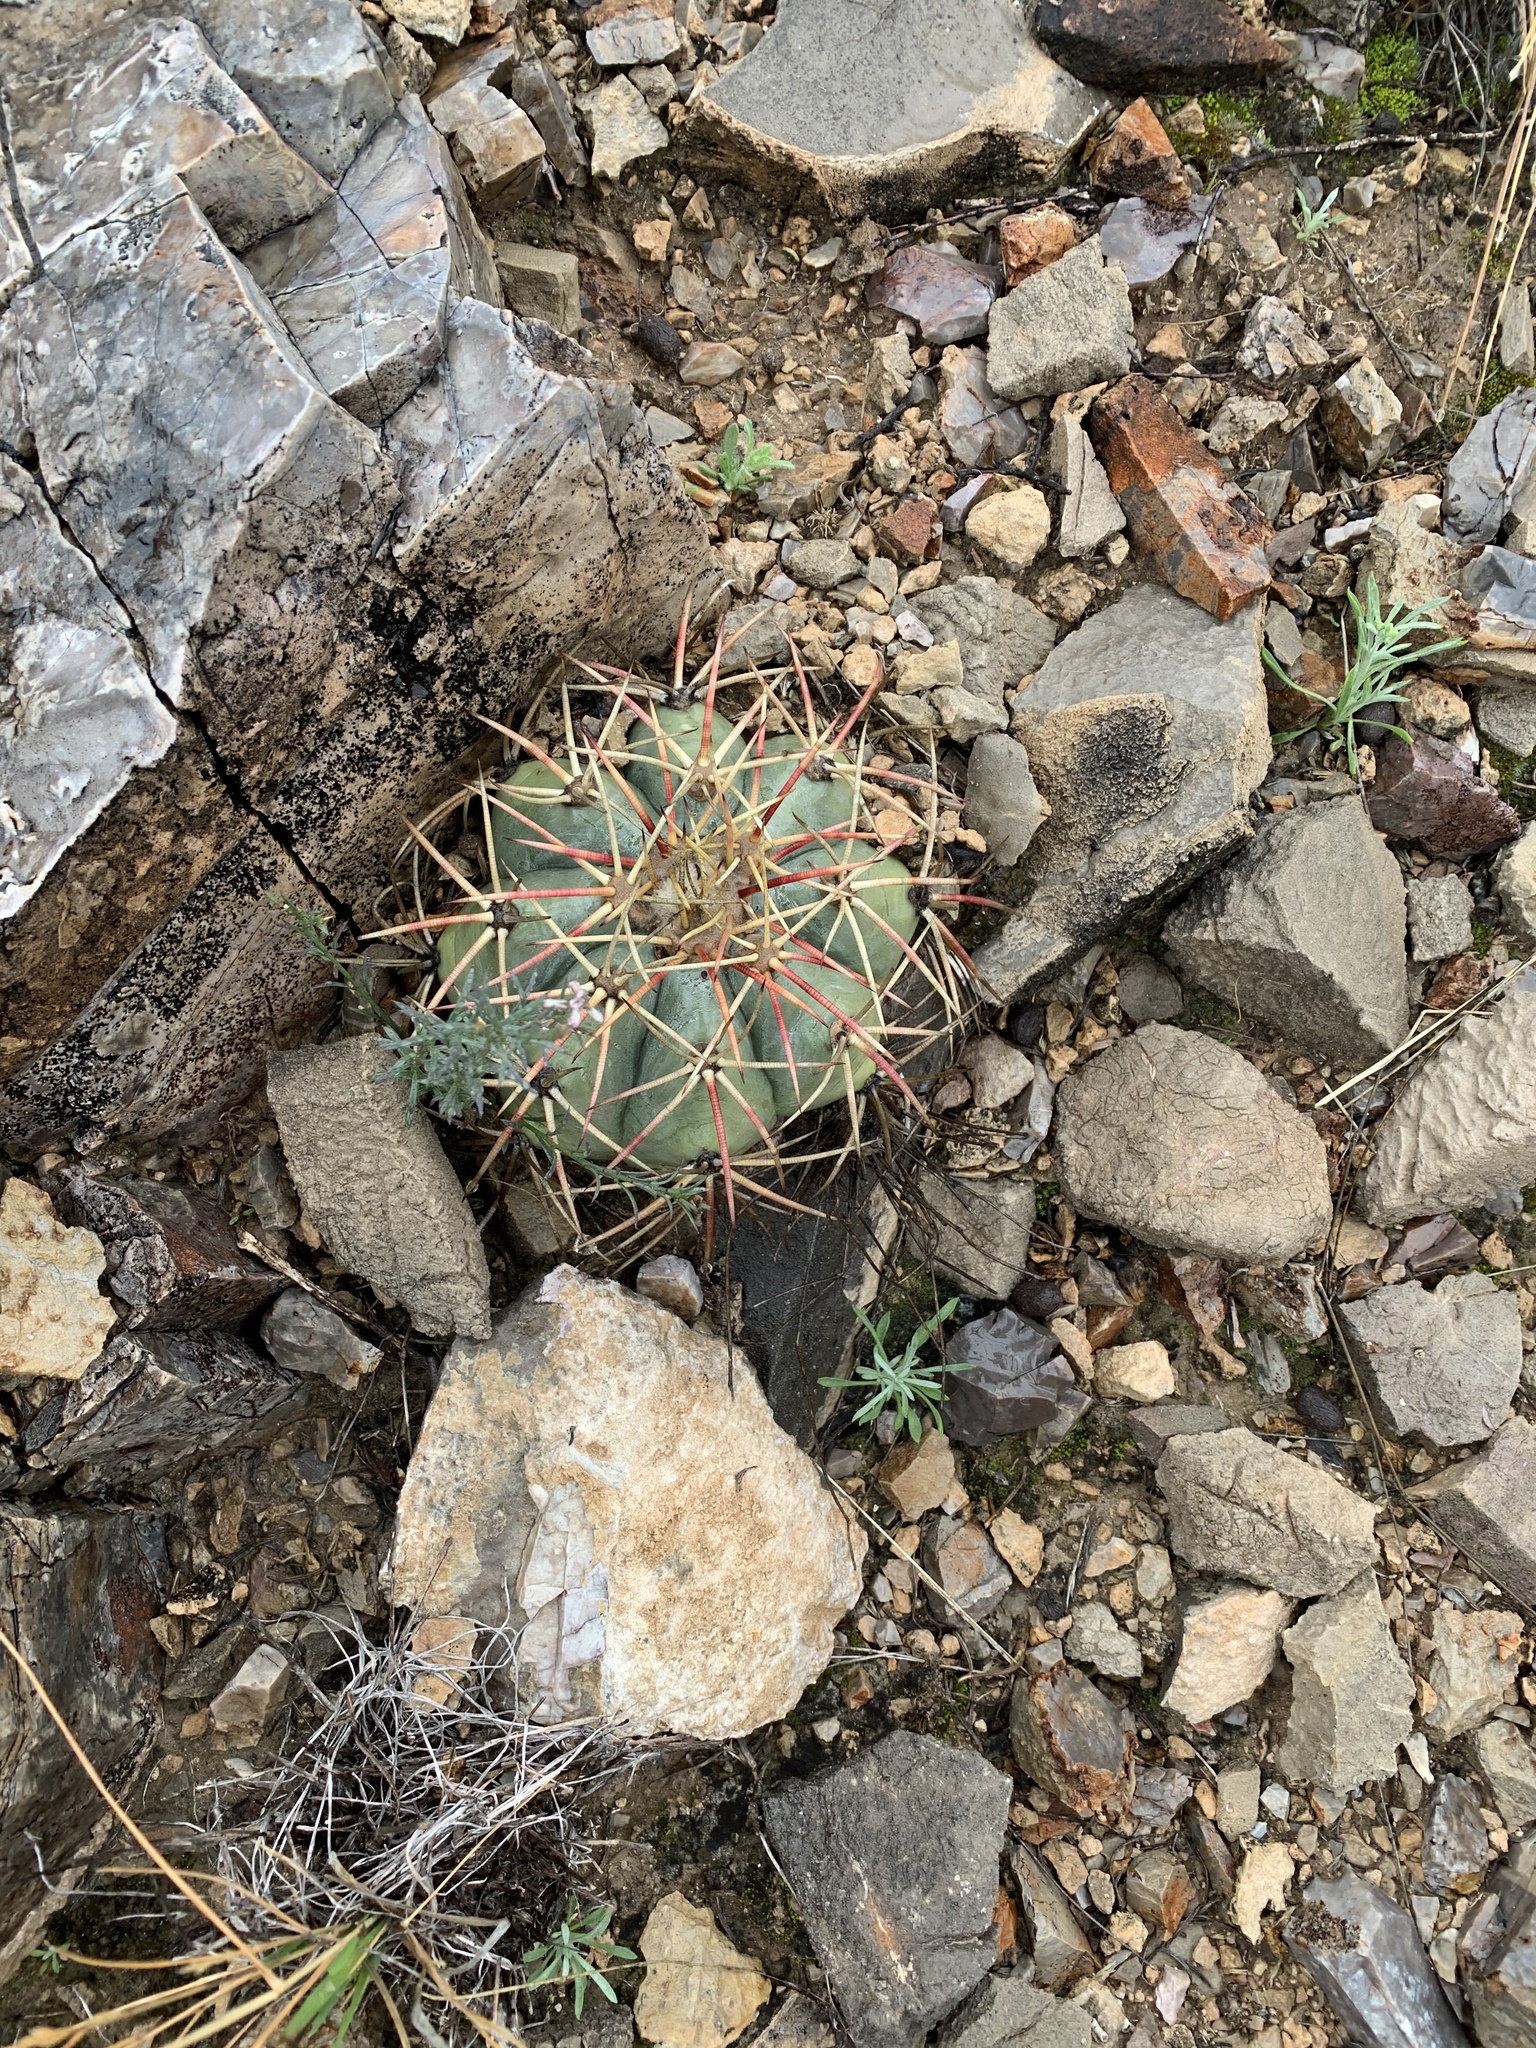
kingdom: Plantae
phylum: Tracheophyta
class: Magnoliopsida
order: Caryophyllales
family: Cactaceae
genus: Echinocactus
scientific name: Echinocactus horizonthalonius
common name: Devilshead
